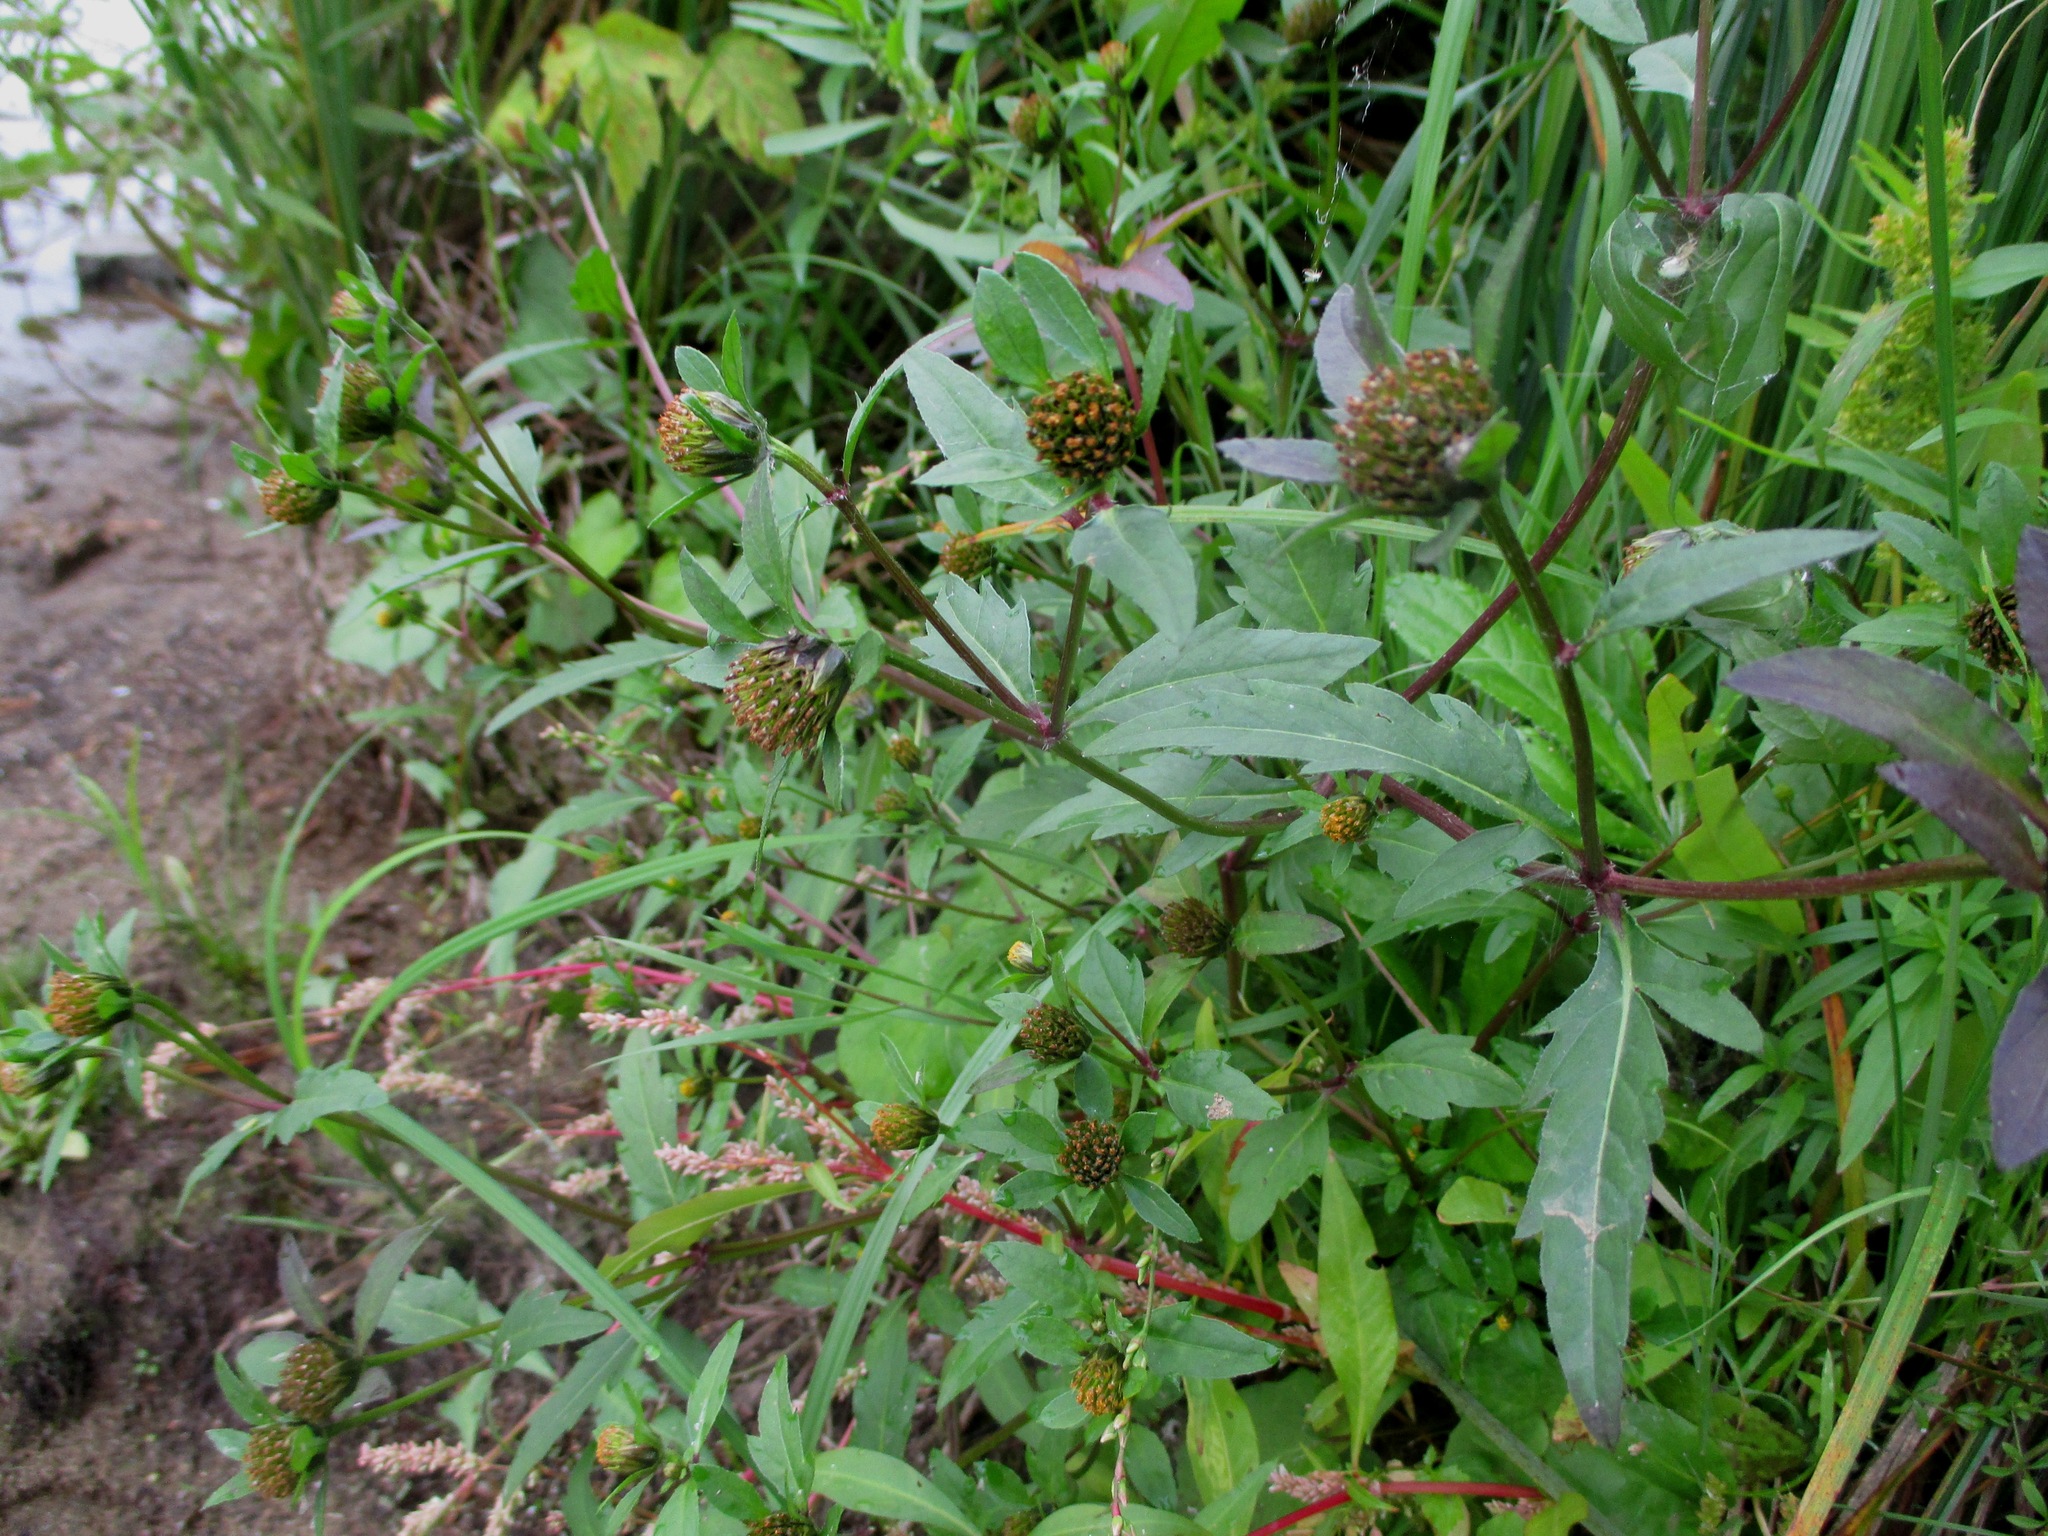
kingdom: Plantae
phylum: Tracheophyta
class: Magnoliopsida
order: Asterales
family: Asteraceae
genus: Bidens
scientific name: Bidens tripartita
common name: Trifid bur-marigold
